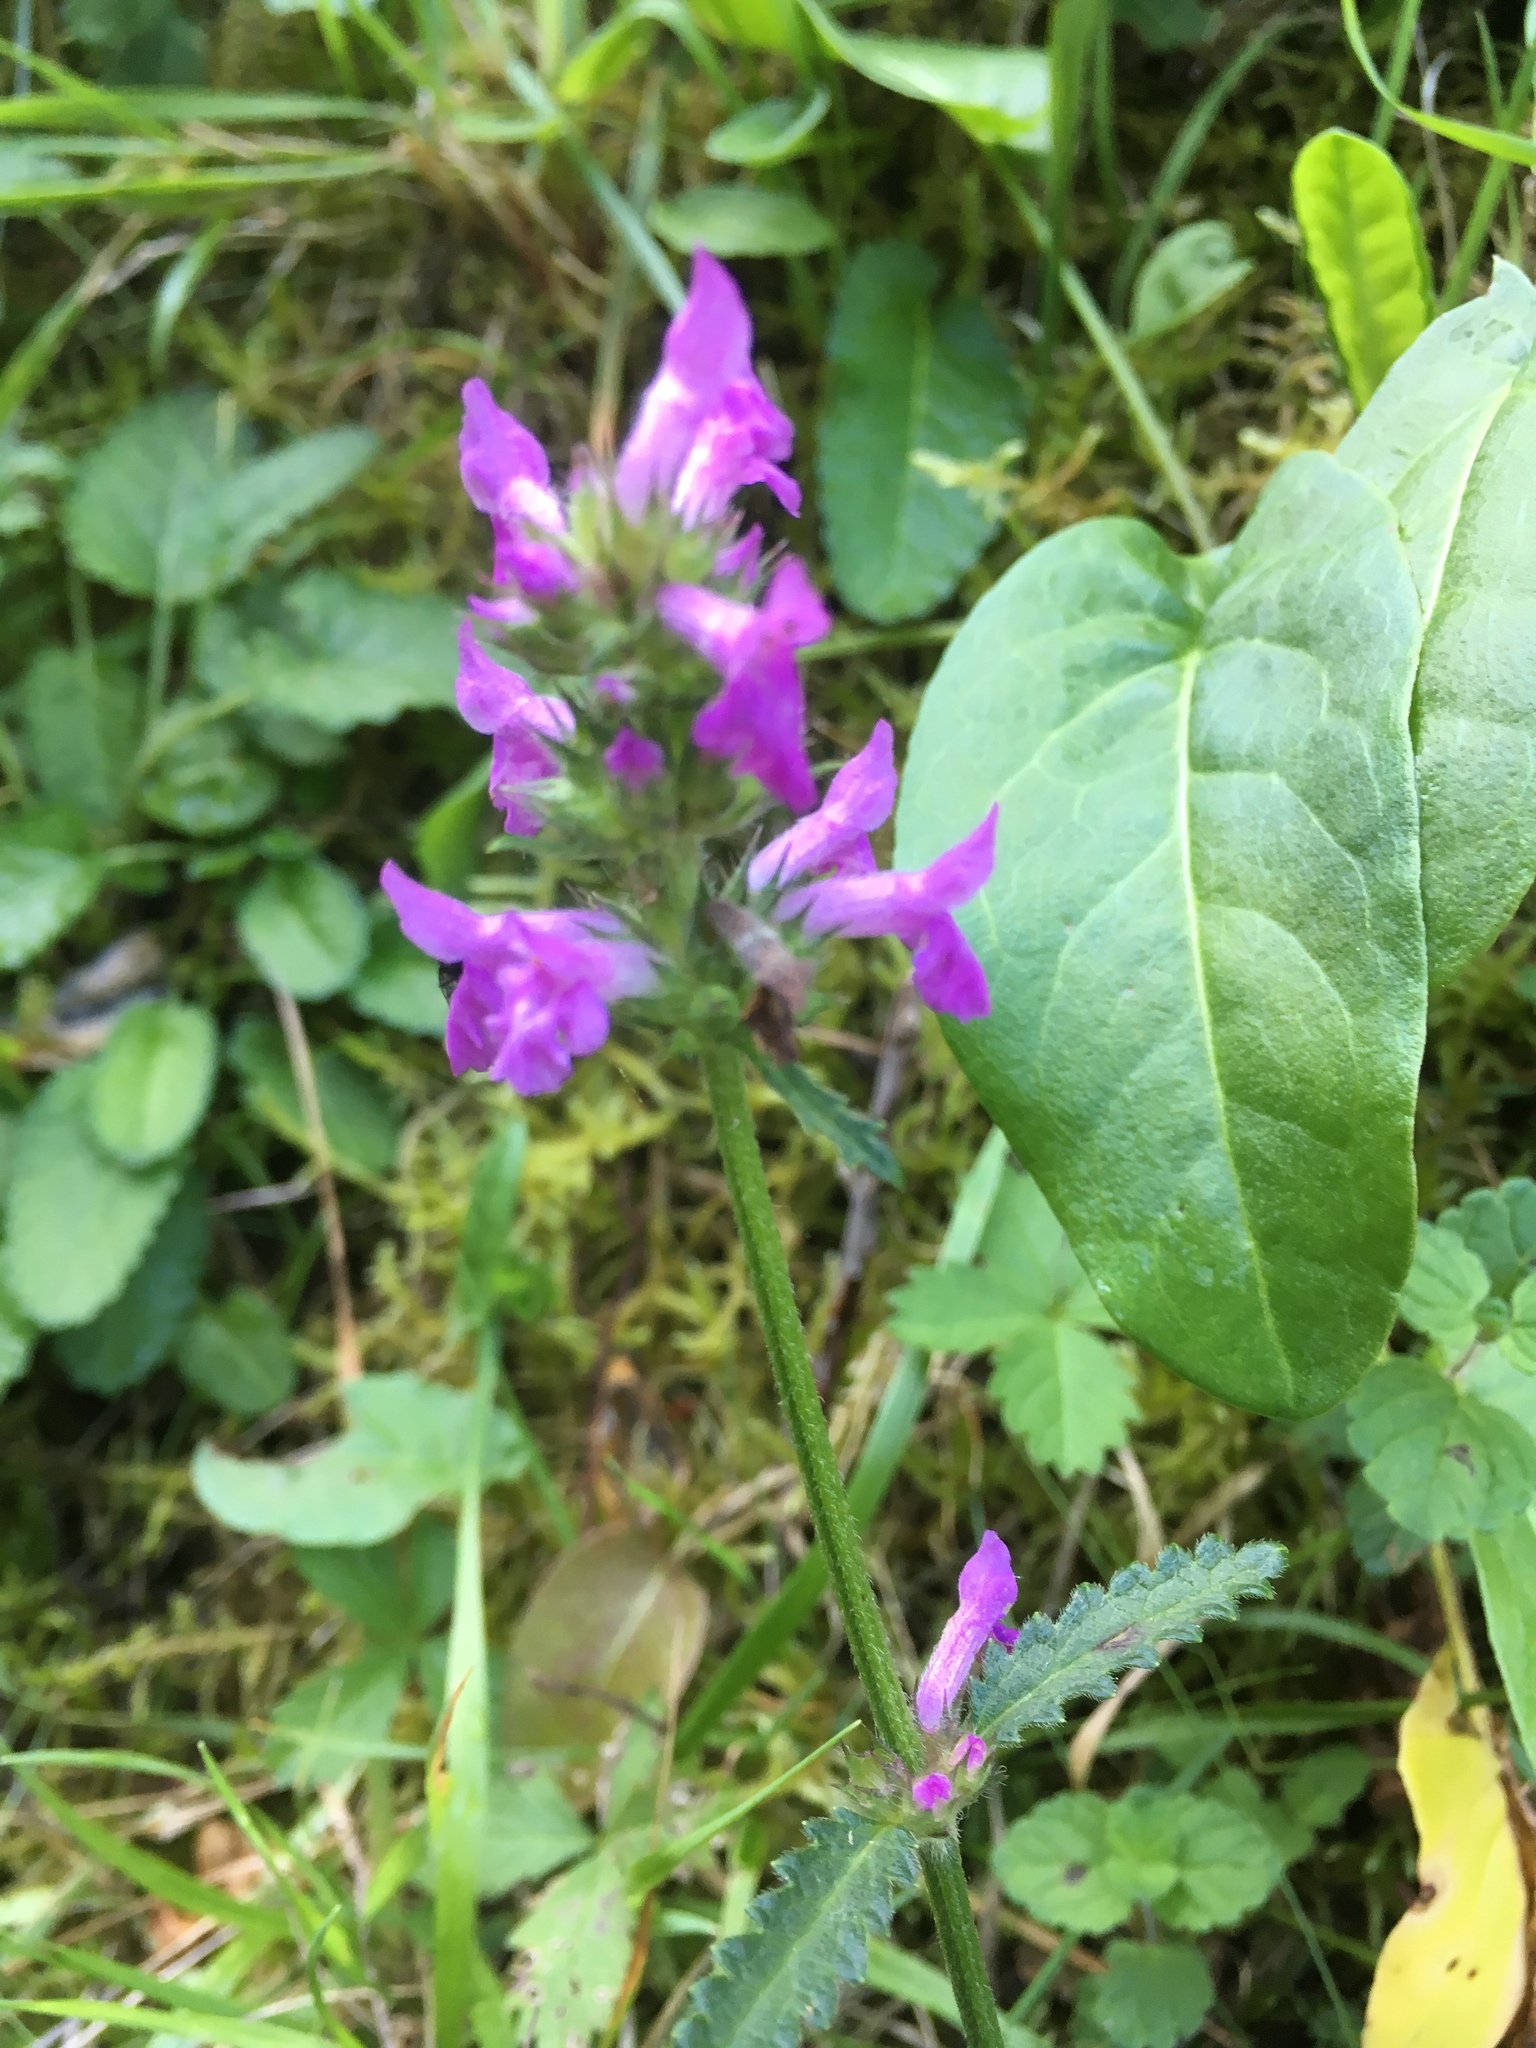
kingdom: Plantae
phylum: Tracheophyta
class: Magnoliopsida
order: Lamiales
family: Lamiaceae
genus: Betonica
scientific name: Betonica officinalis
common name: Bishop's-wort
